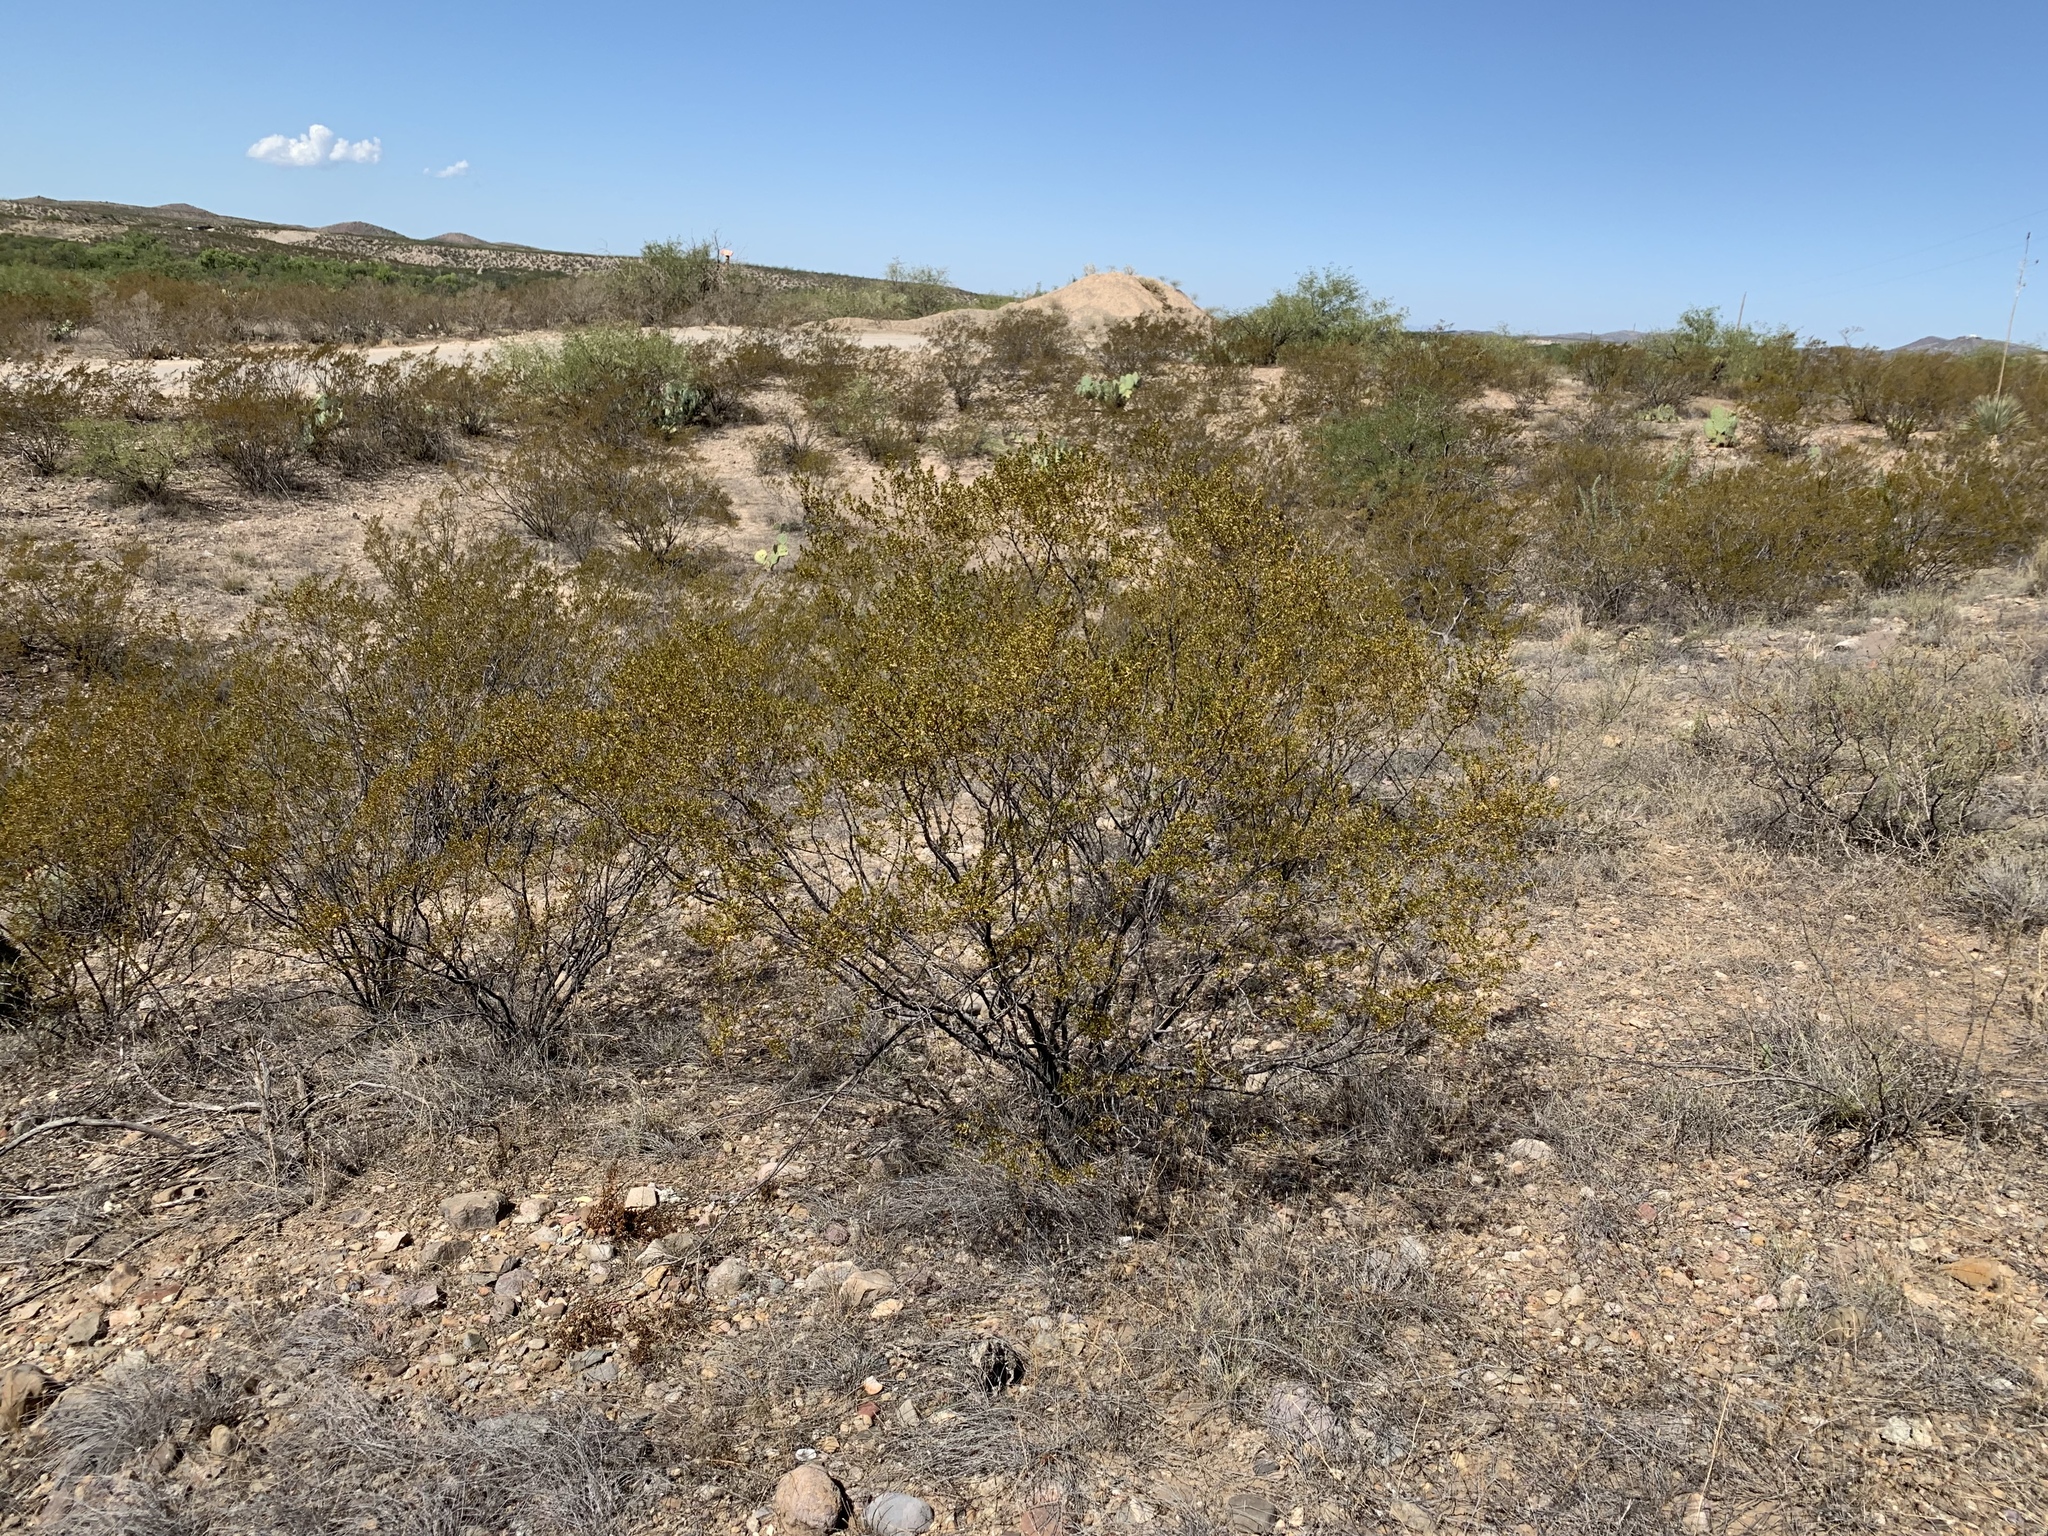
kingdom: Plantae
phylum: Tracheophyta
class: Magnoliopsida
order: Zygophyllales
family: Zygophyllaceae
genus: Larrea
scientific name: Larrea tridentata
